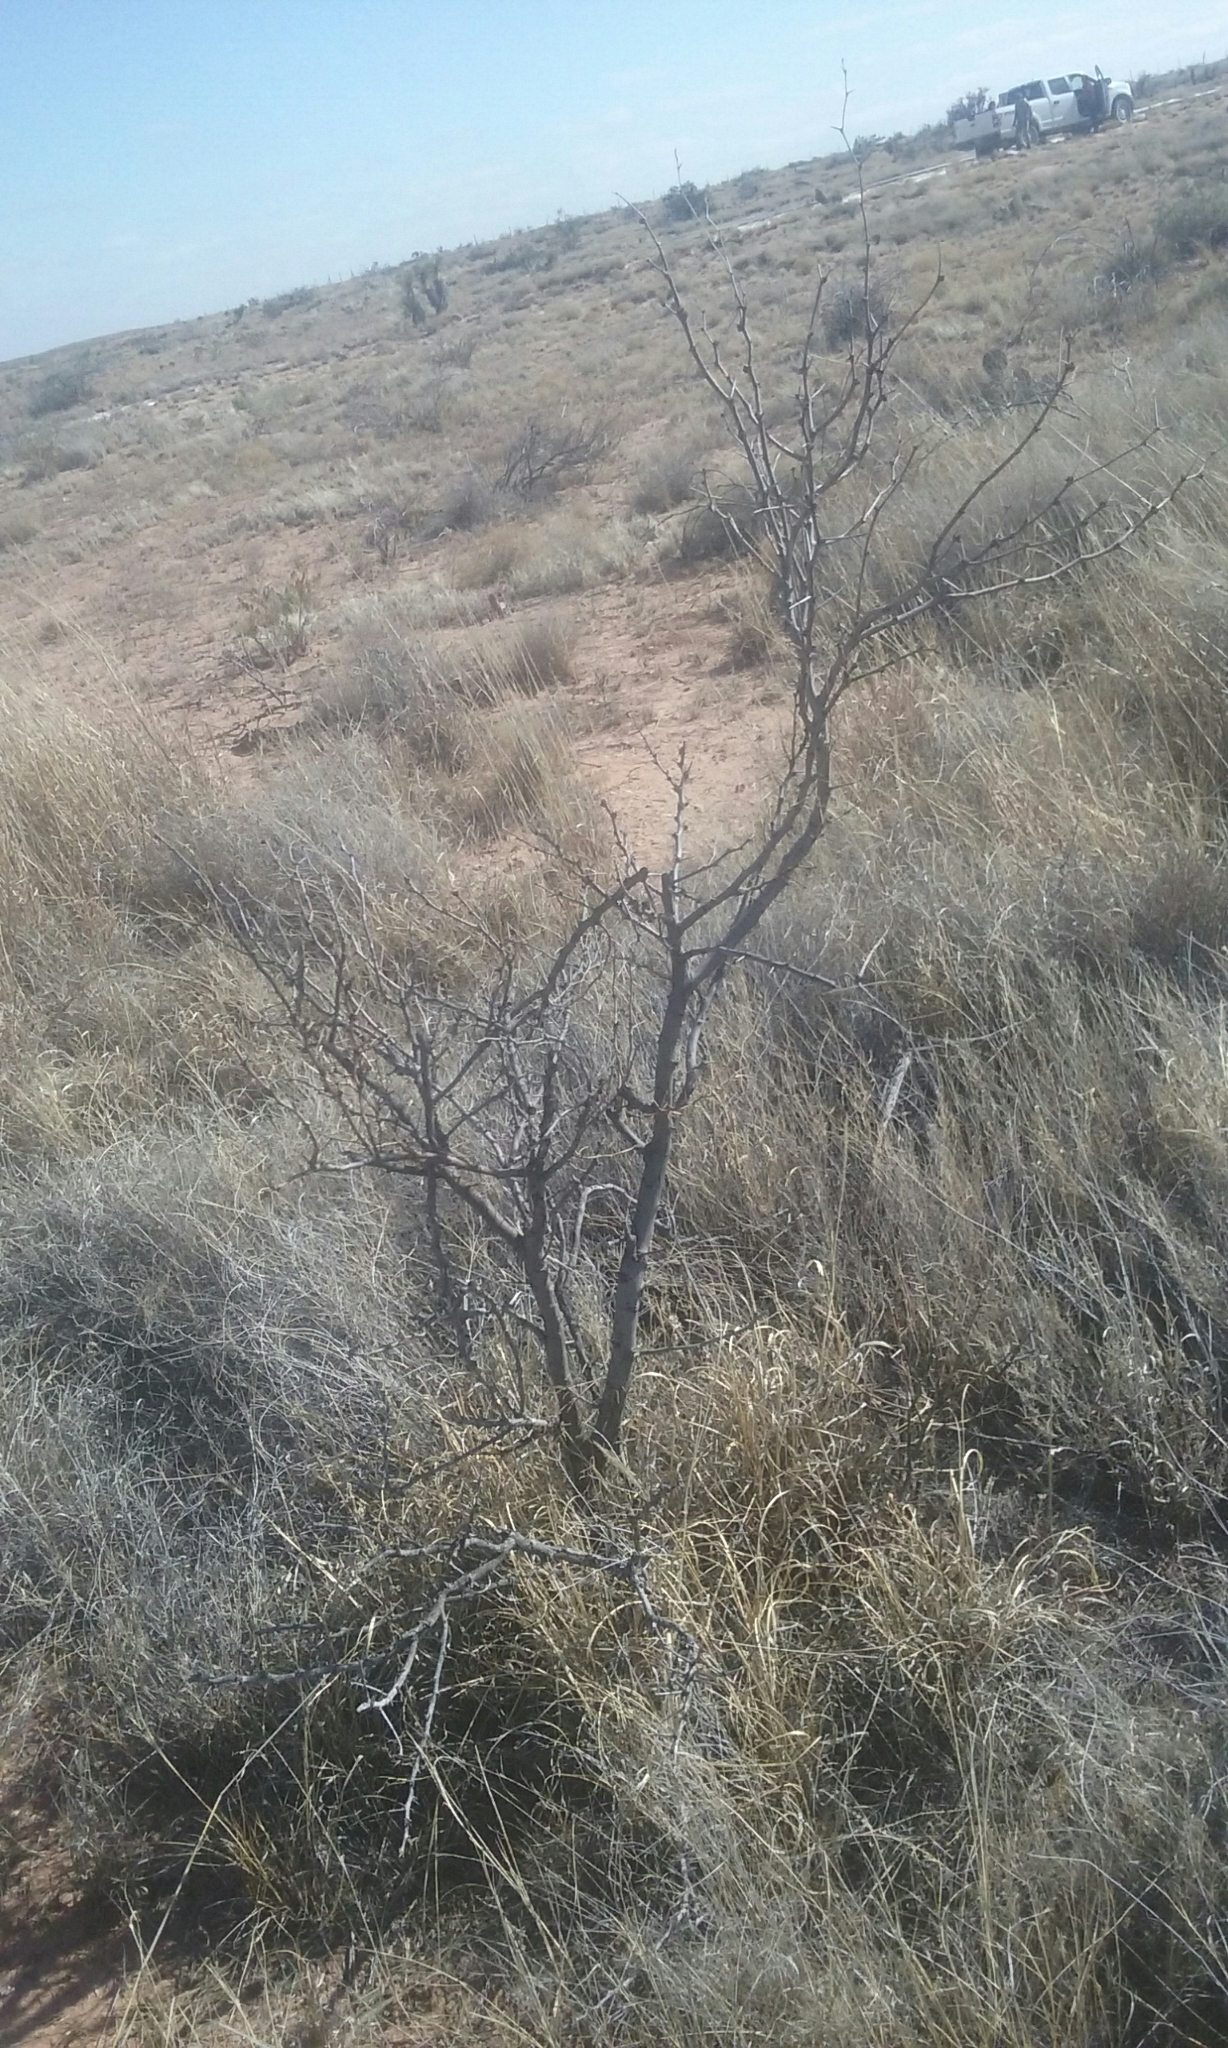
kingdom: Plantae
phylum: Tracheophyta
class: Magnoliopsida
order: Fabales
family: Fabaceae
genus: Prosopis
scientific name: Prosopis glandulosa
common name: Honey mesquite
